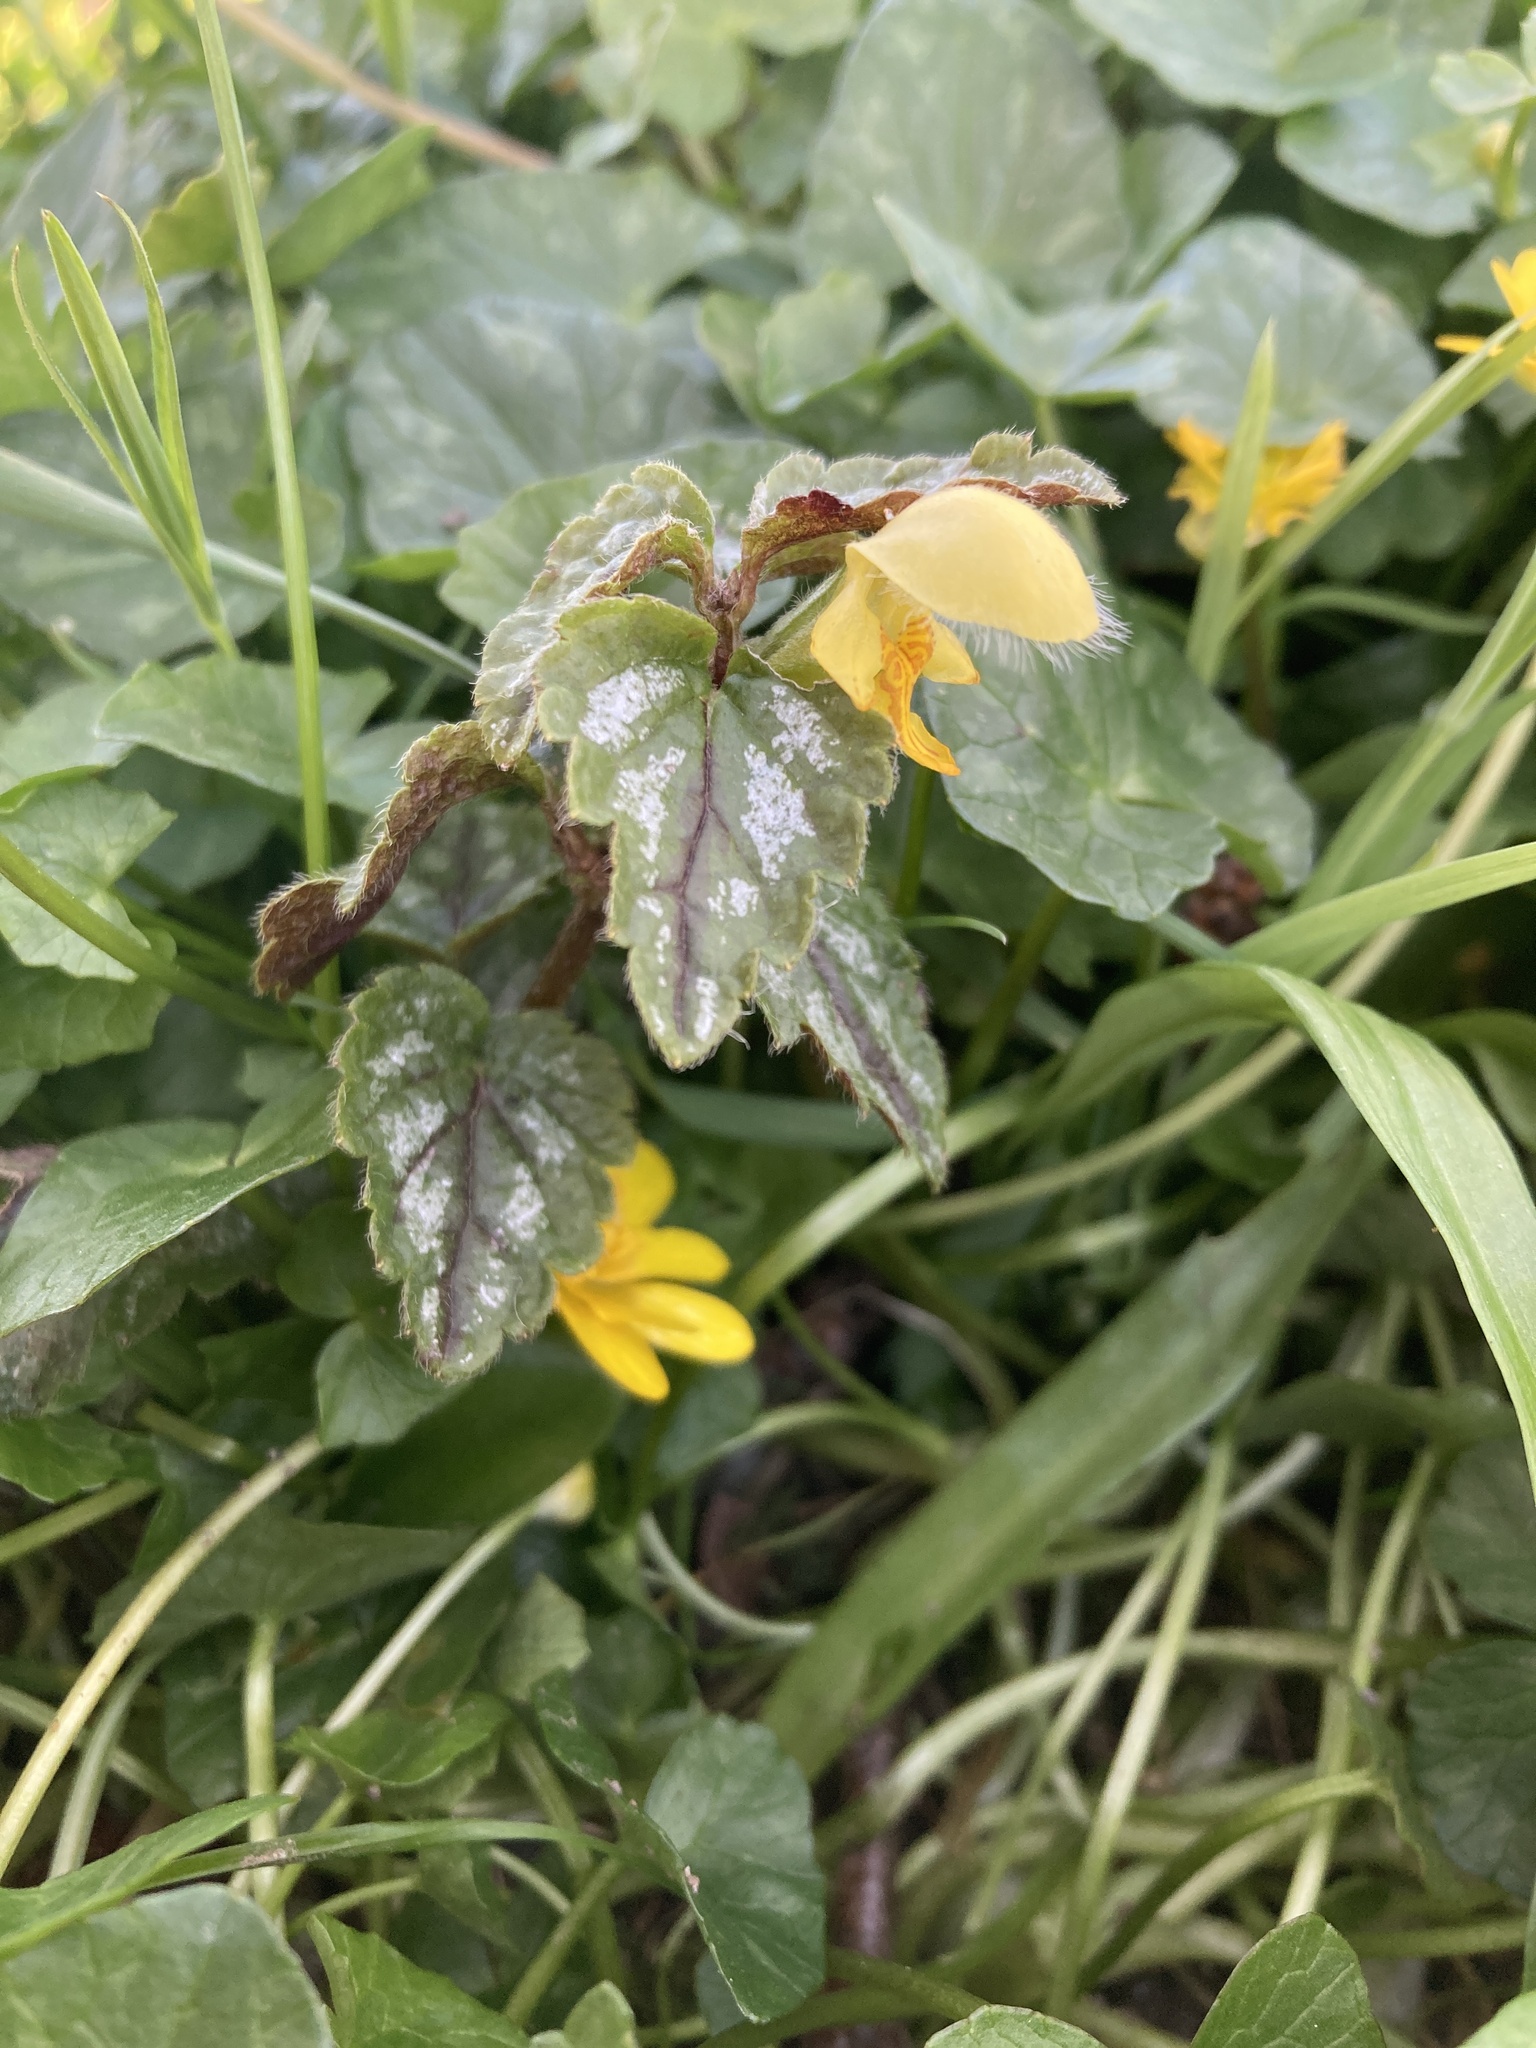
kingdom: Plantae
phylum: Tracheophyta
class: Magnoliopsida
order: Lamiales
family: Lamiaceae
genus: Lamium
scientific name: Lamium galeobdolon
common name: Yellow archangel
